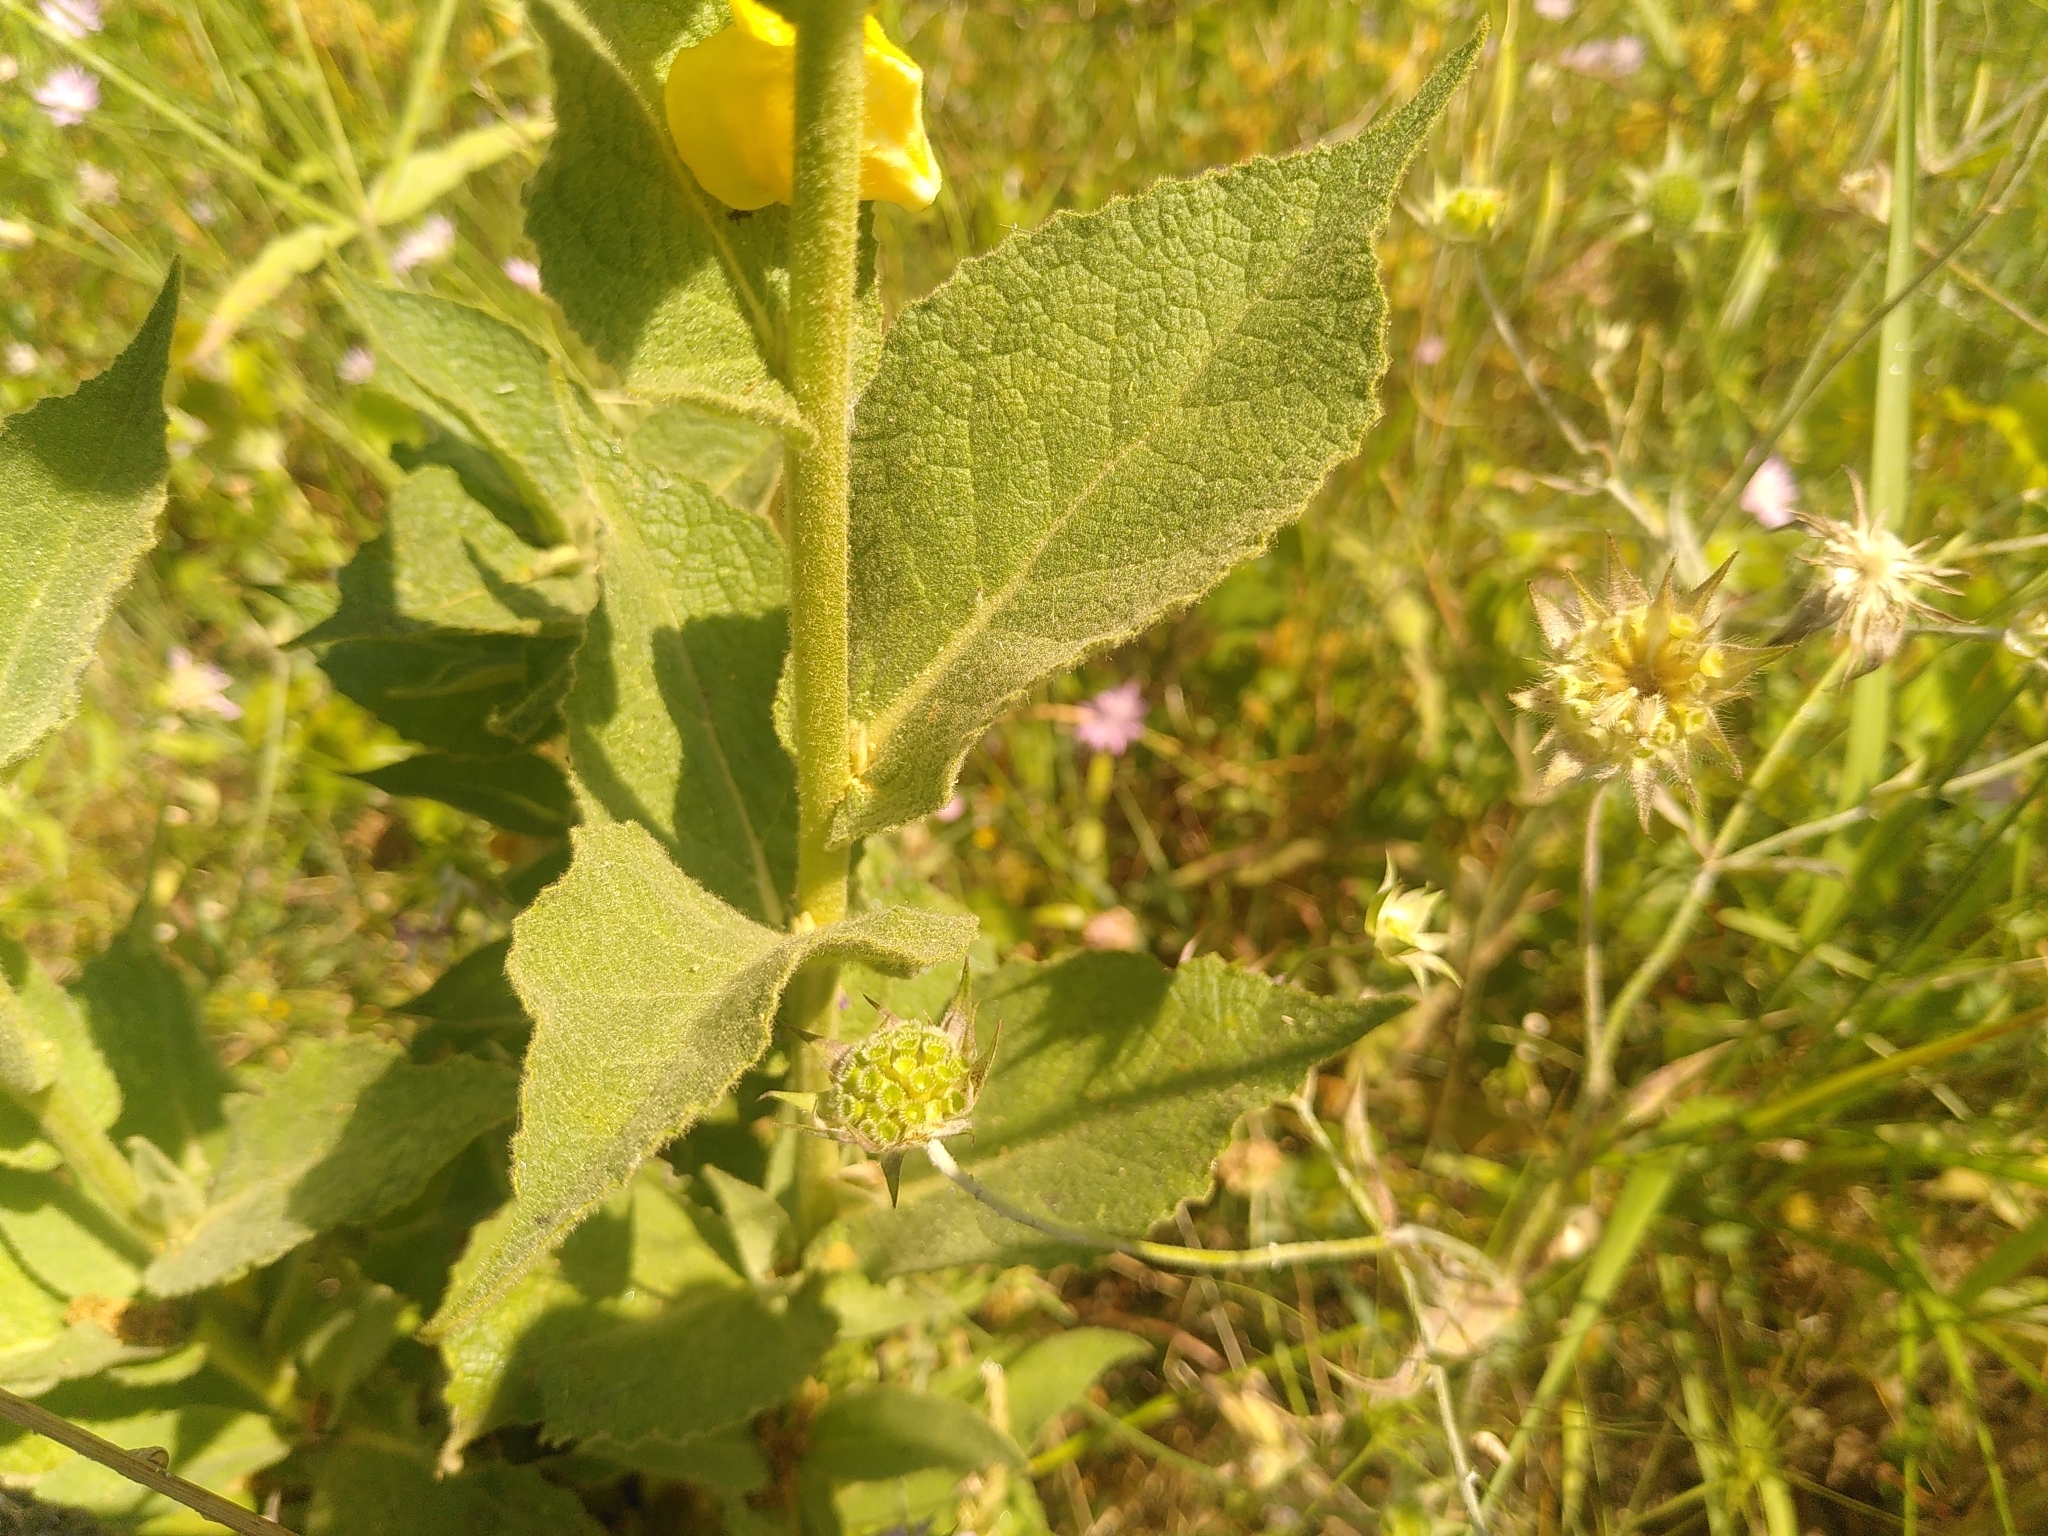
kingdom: Plantae
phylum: Tracheophyta
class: Magnoliopsida
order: Lamiales
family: Scrophulariaceae
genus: Verbascum
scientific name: Verbascum phlomoides
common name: Orange mullein
